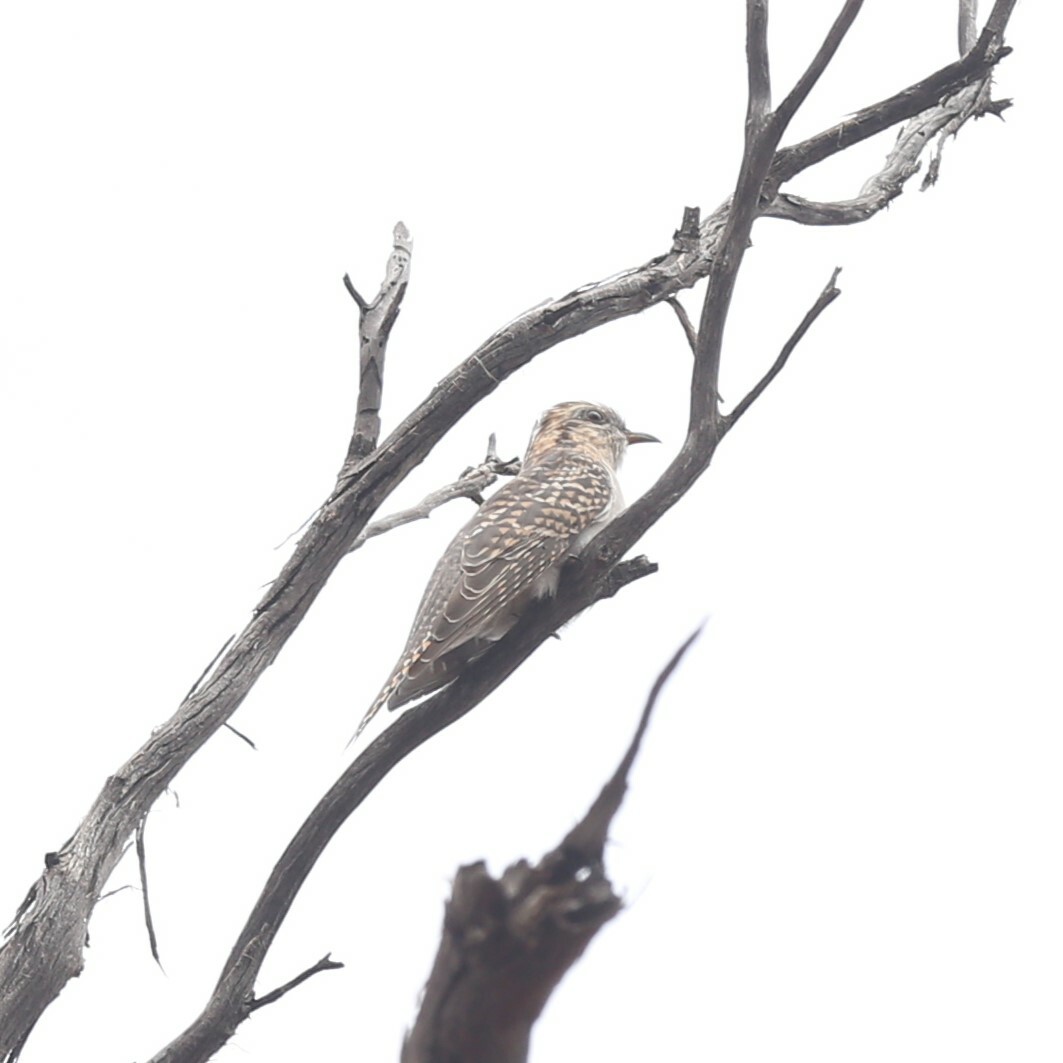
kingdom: Animalia
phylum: Chordata
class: Aves
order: Cuculiformes
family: Cuculidae
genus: Cuculus
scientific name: Cuculus pallidus
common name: Pallid cuckoo
